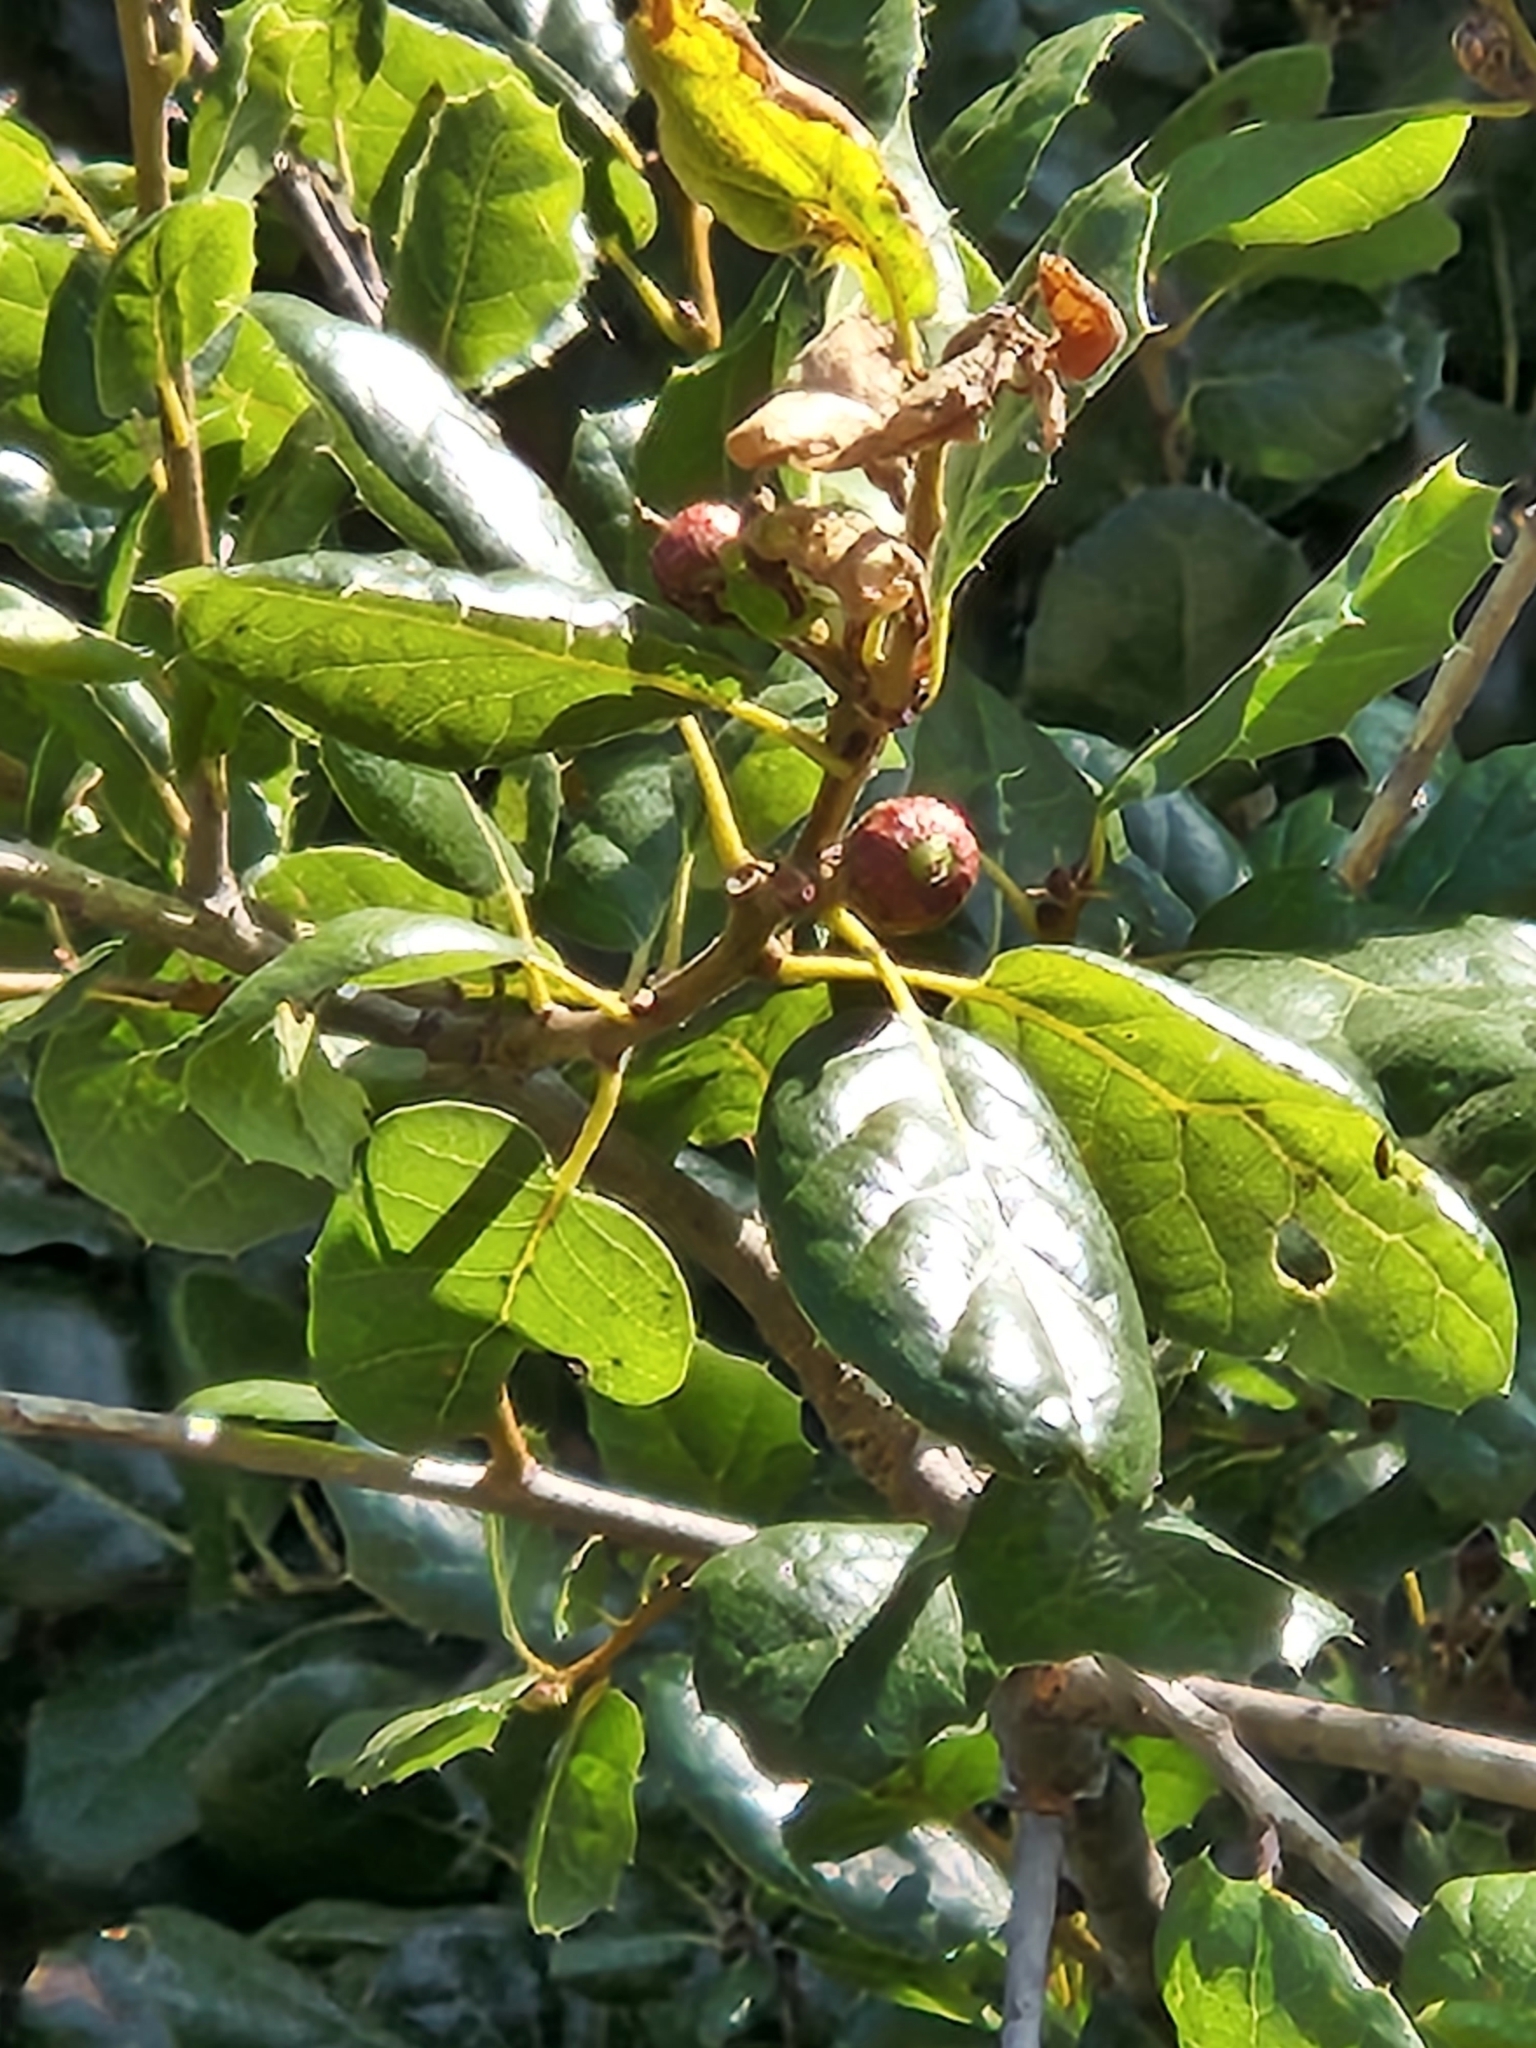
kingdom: Plantae
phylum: Tracheophyta
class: Magnoliopsida
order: Fagales
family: Fagaceae
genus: Quercus
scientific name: Quercus agrifolia
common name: California live oak
